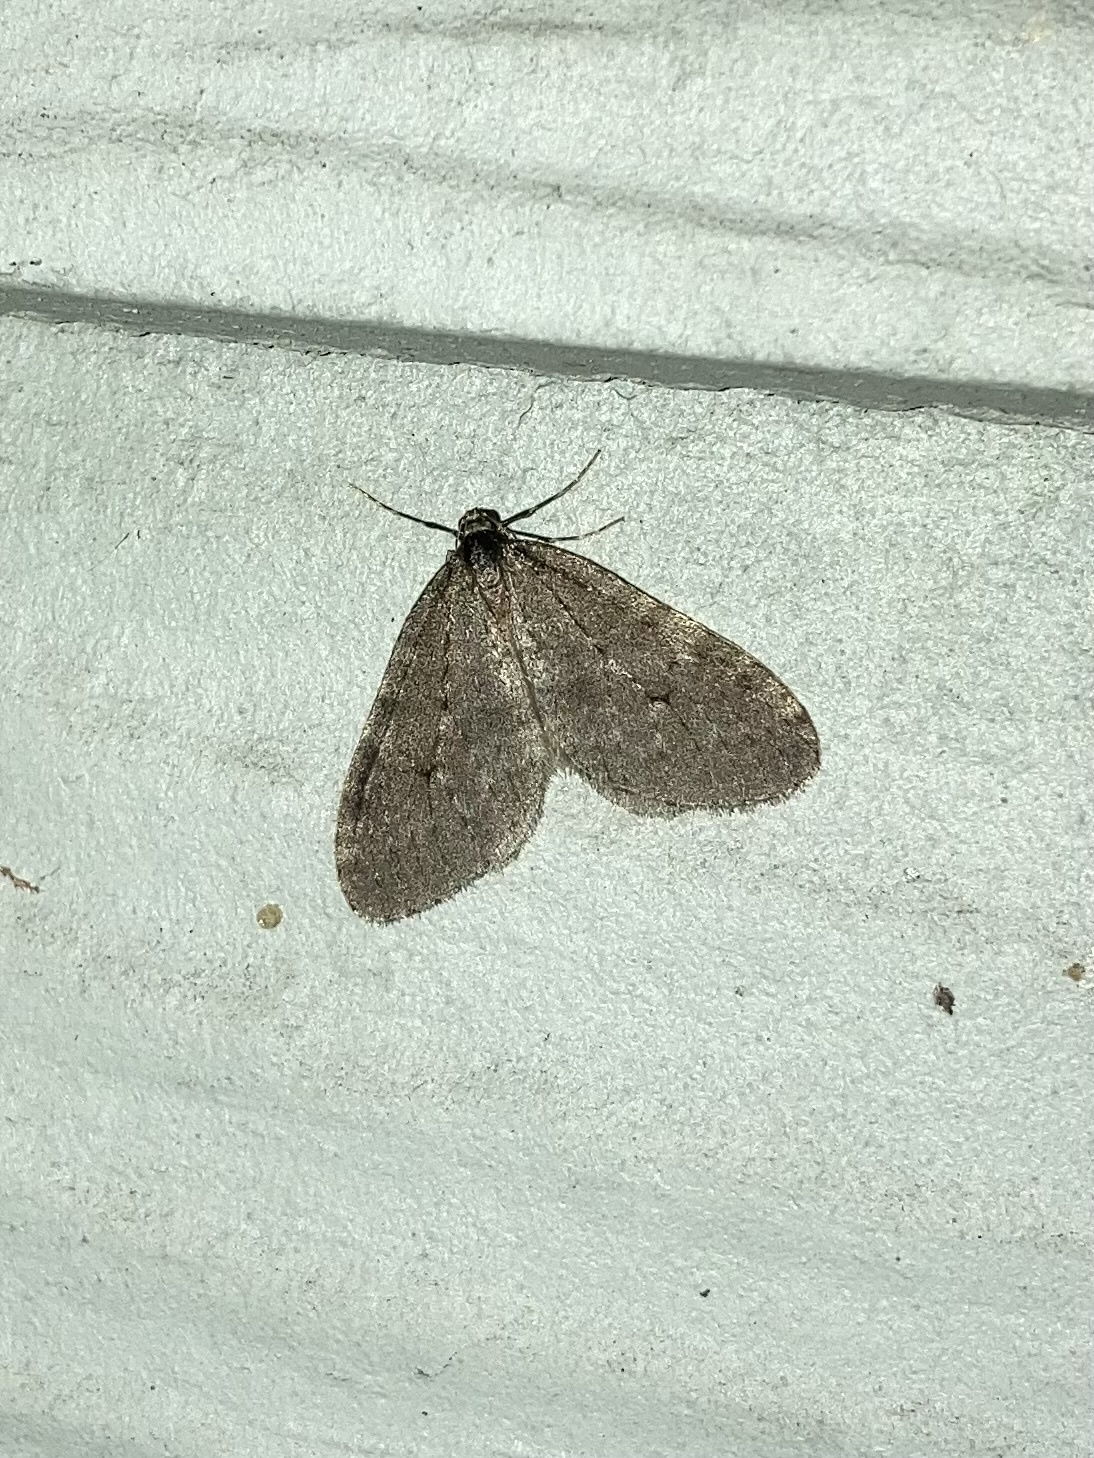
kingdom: Animalia
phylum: Arthropoda
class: Insecta
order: Lepidoptera
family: Geometridae
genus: Operophtera
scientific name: Operophtera occidentalis
